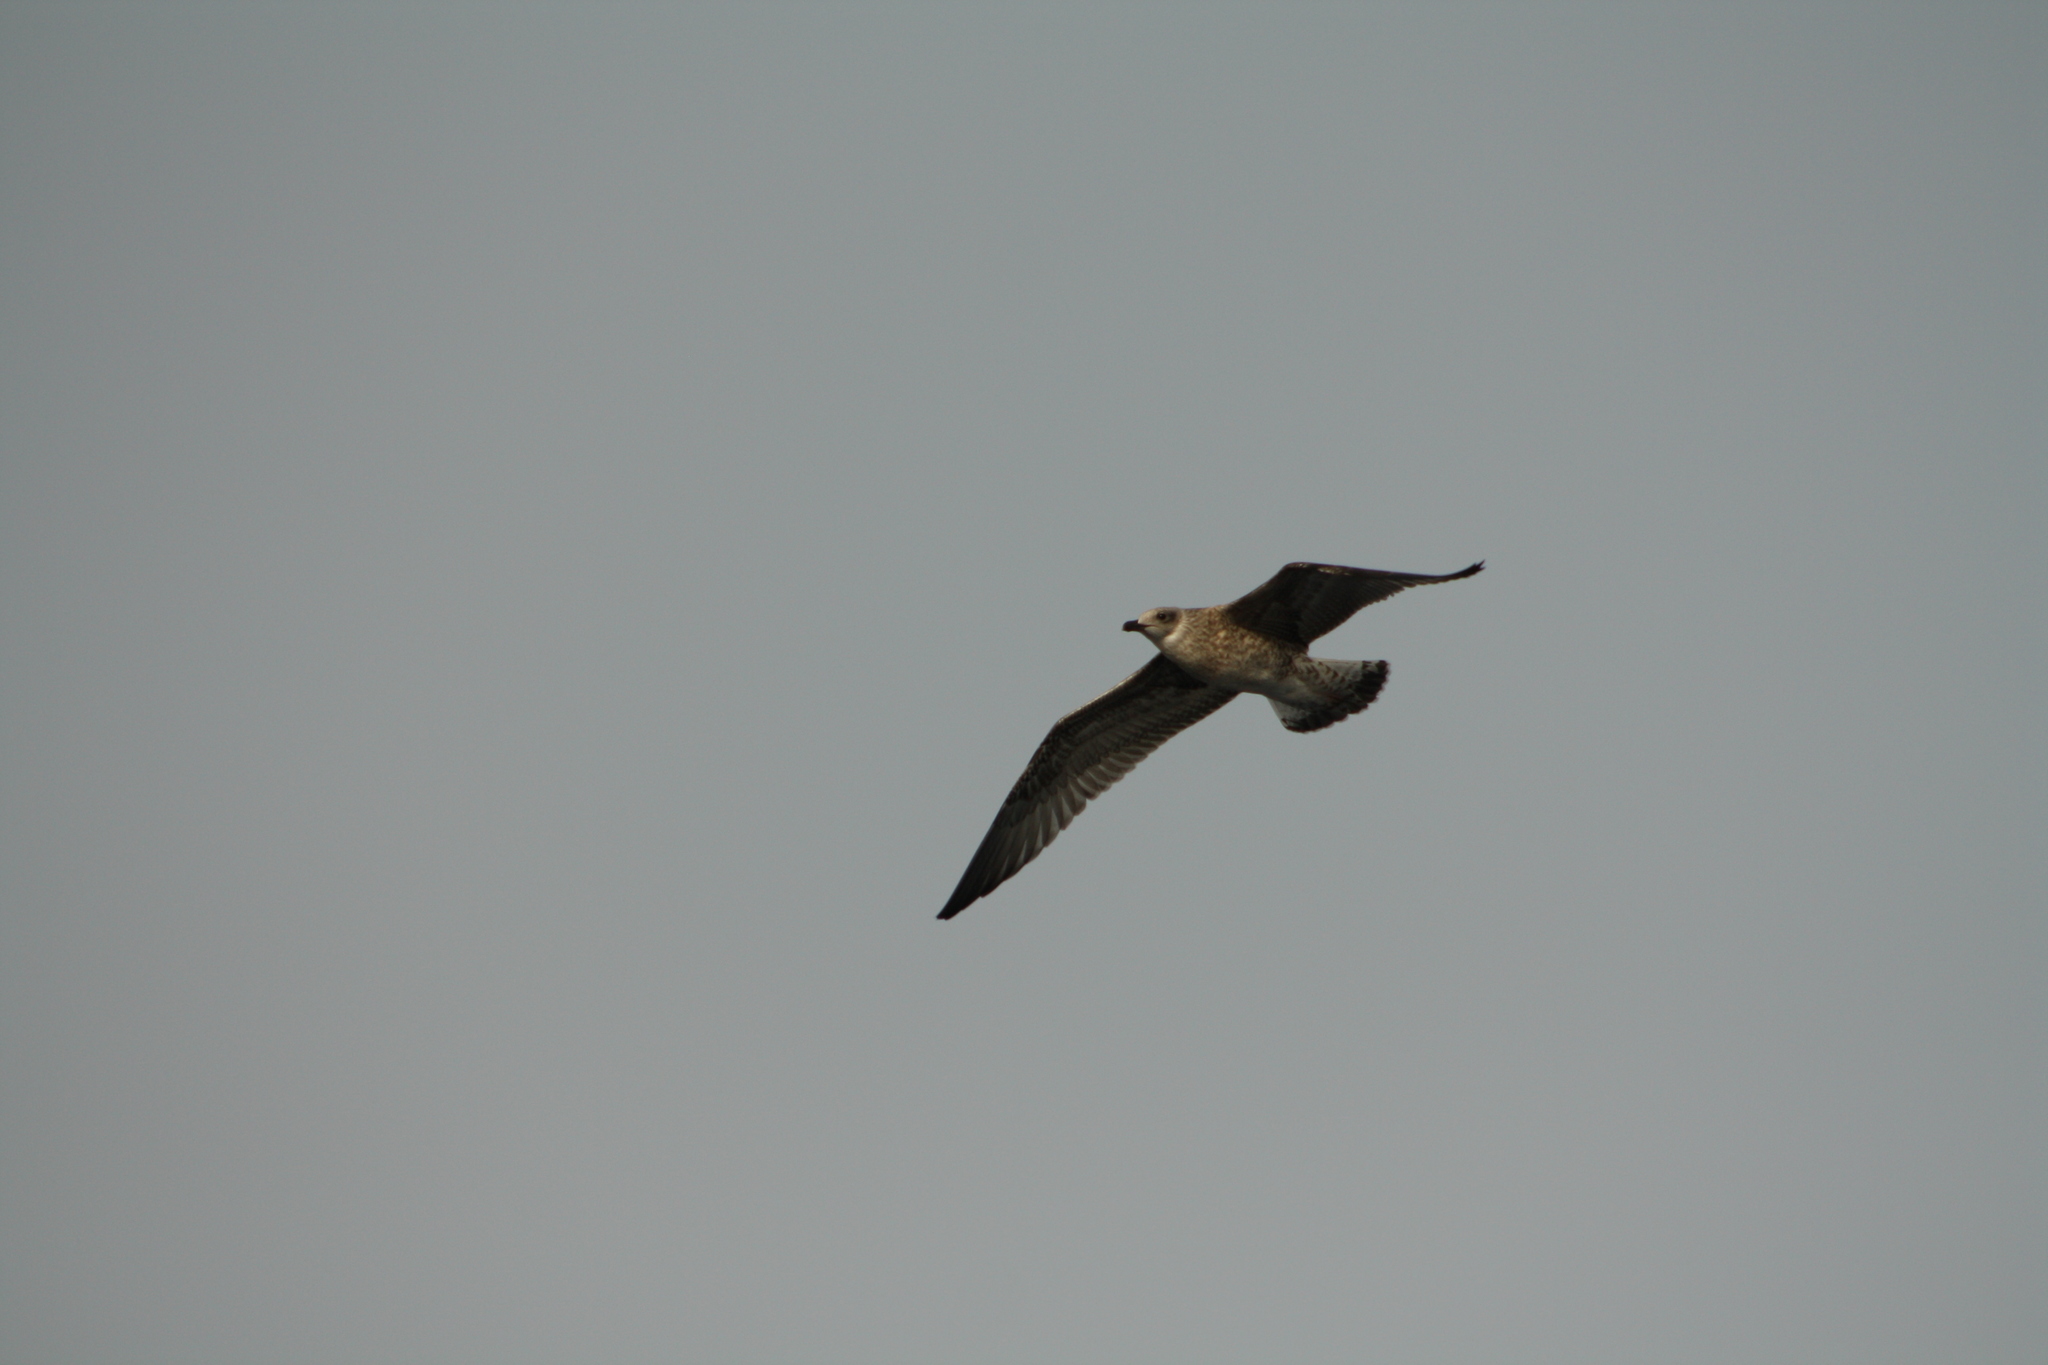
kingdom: Animalia
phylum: Chordata
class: Aves
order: Charadriiformes
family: Laridae
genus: Larus
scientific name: Larus michahellis
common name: Yellow-legged gull
